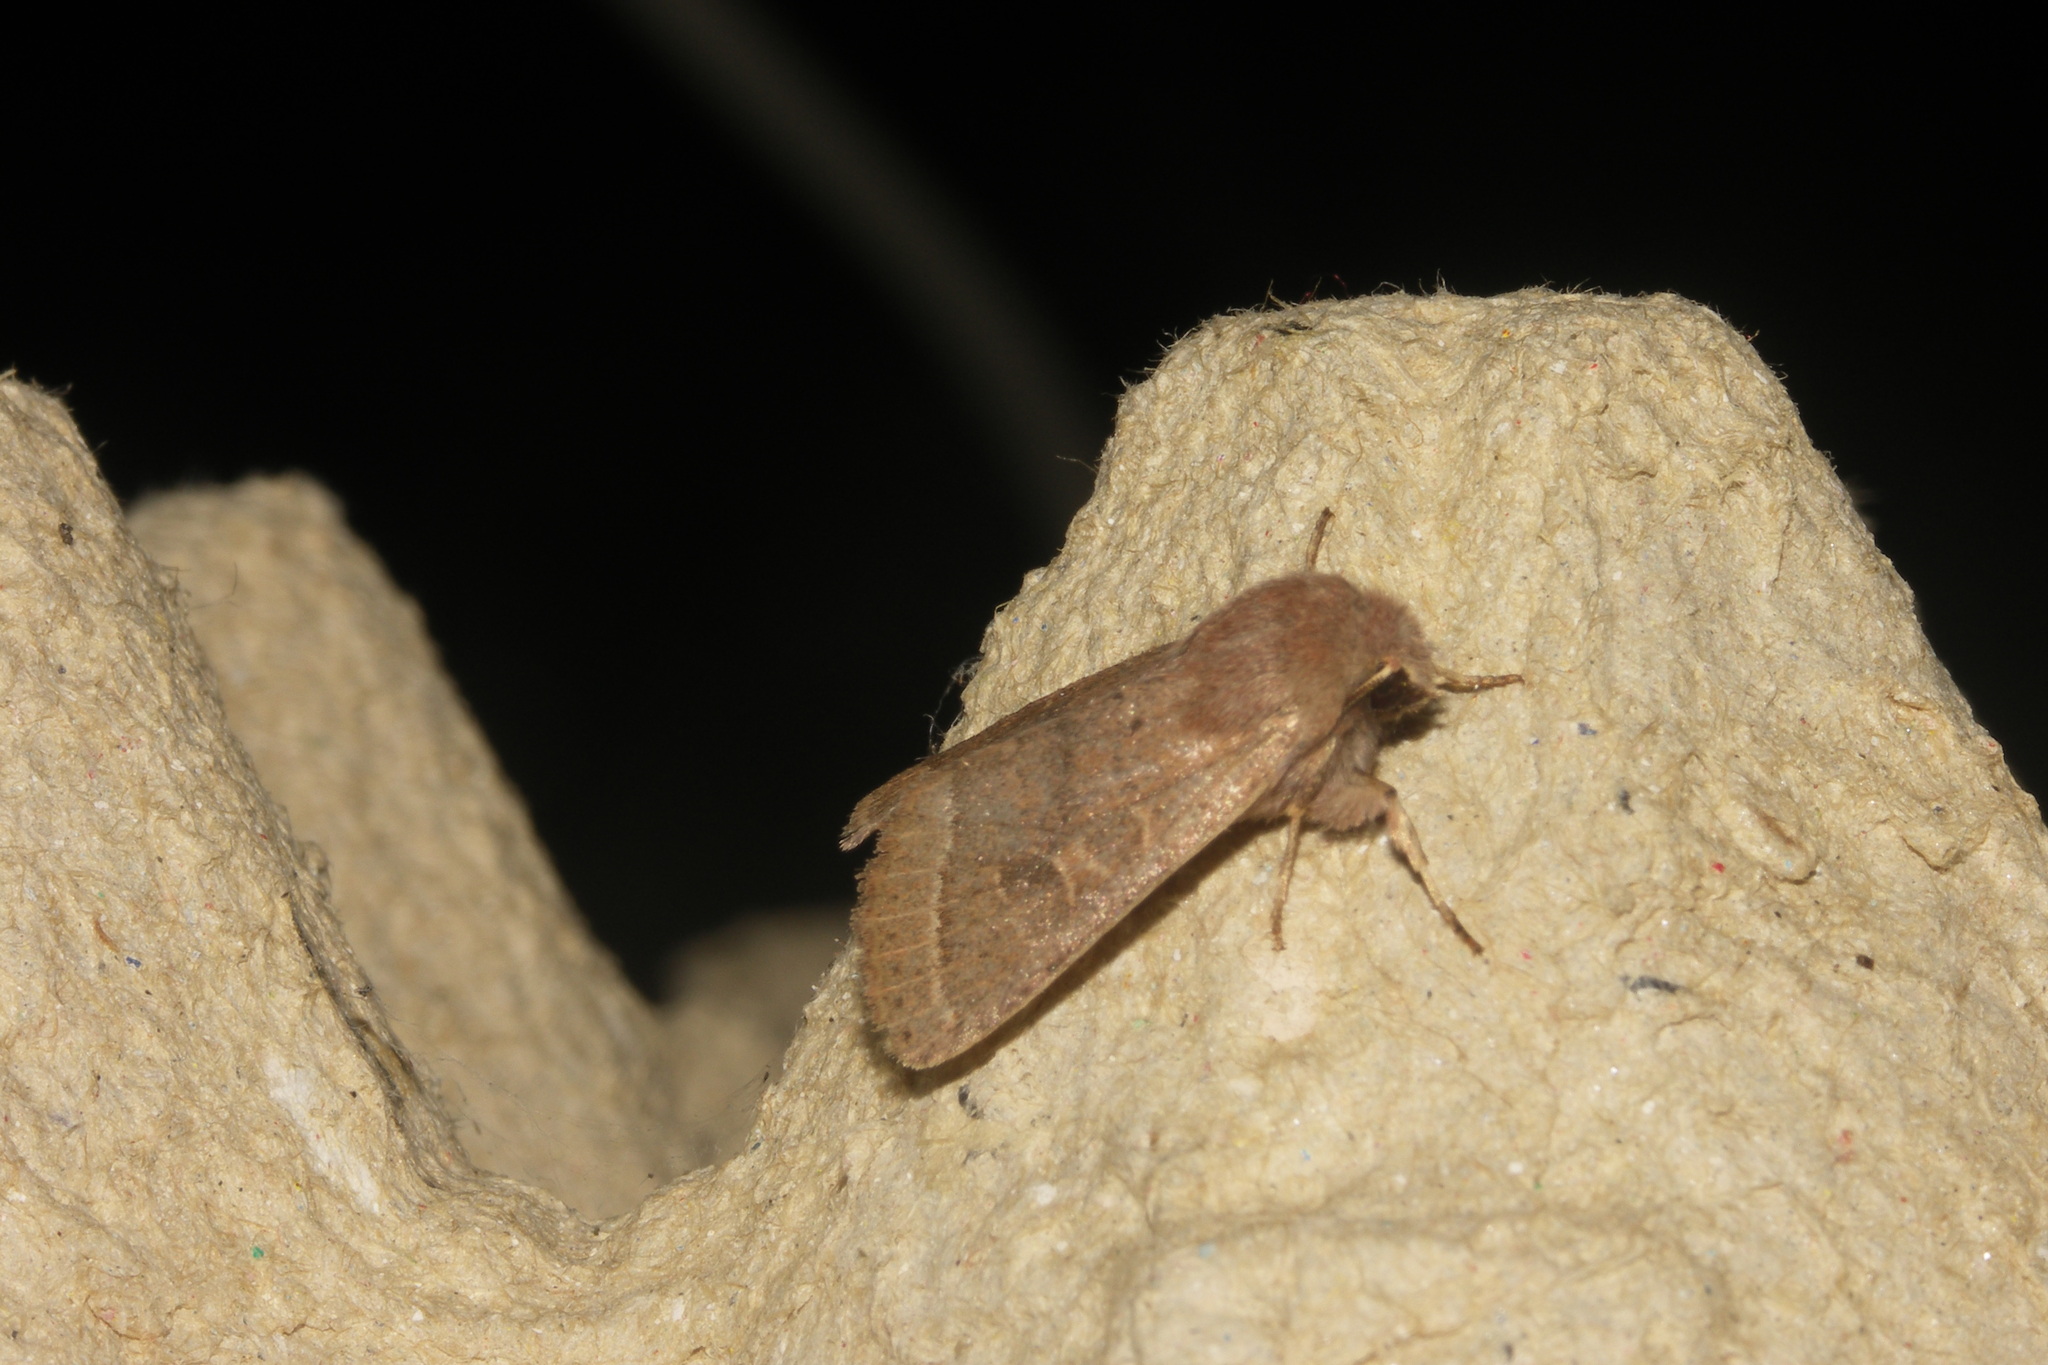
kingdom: Animalia
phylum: Arthropoda
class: Insecta
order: Lepidoptera
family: Noctuidae
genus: Orthosia
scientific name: Orthosia cerasi
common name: Common quaker
